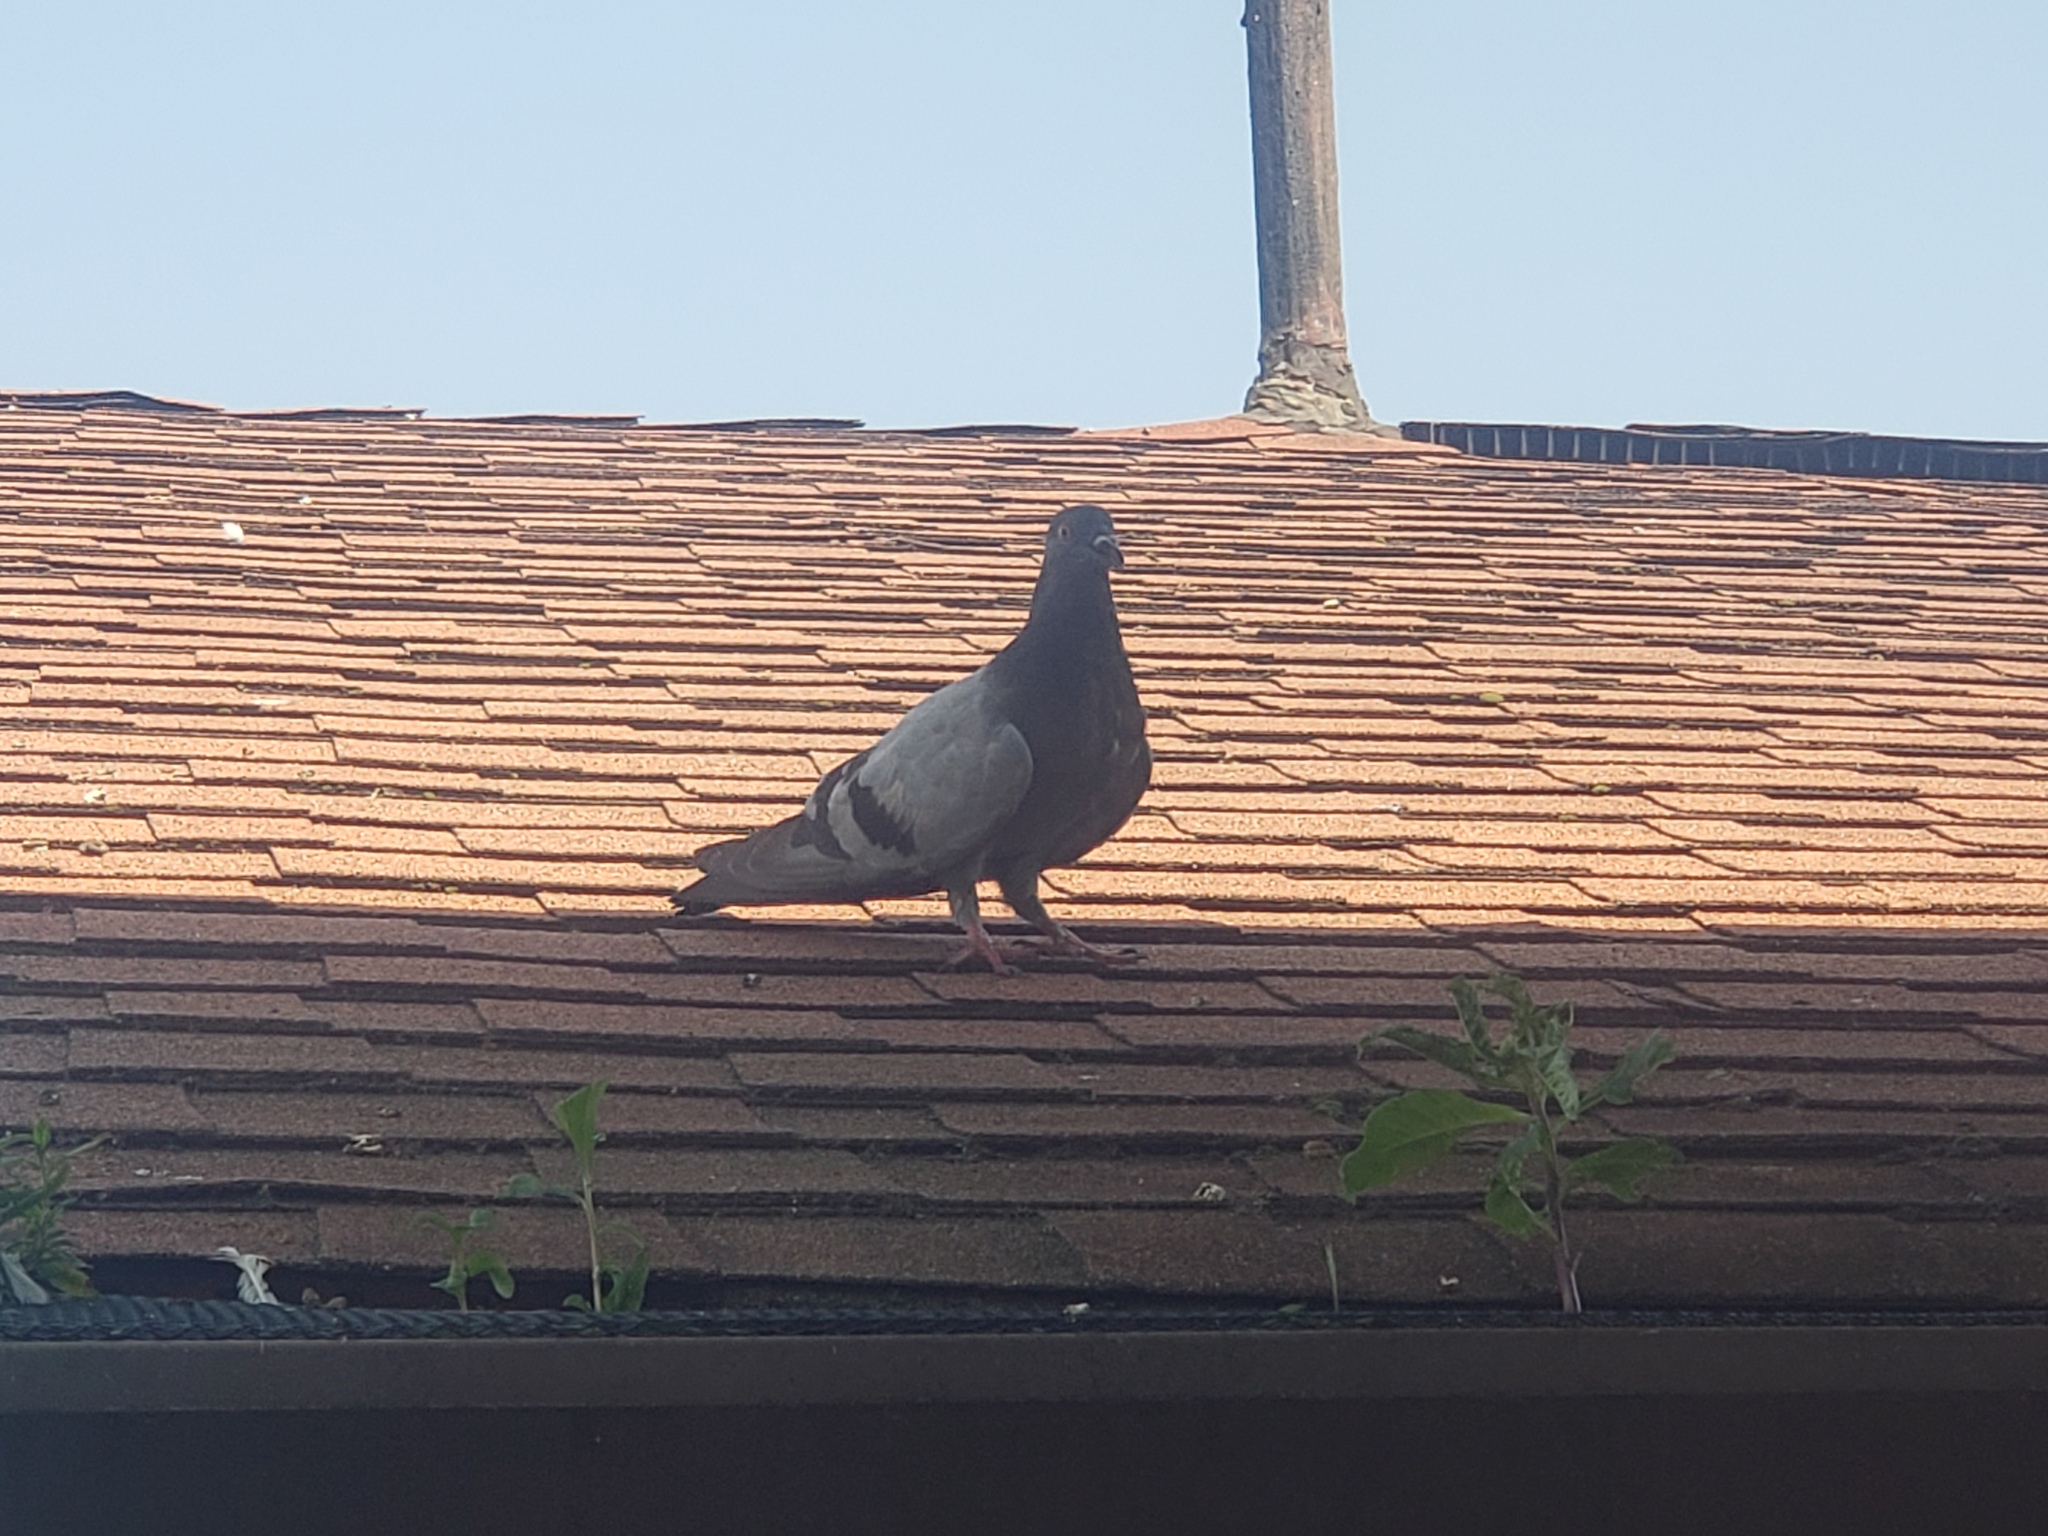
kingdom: Animalia
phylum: Chordata
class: Aves
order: Columbiformes
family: Columbidae
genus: Columba
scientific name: Columba livia
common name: Rock pigeon
